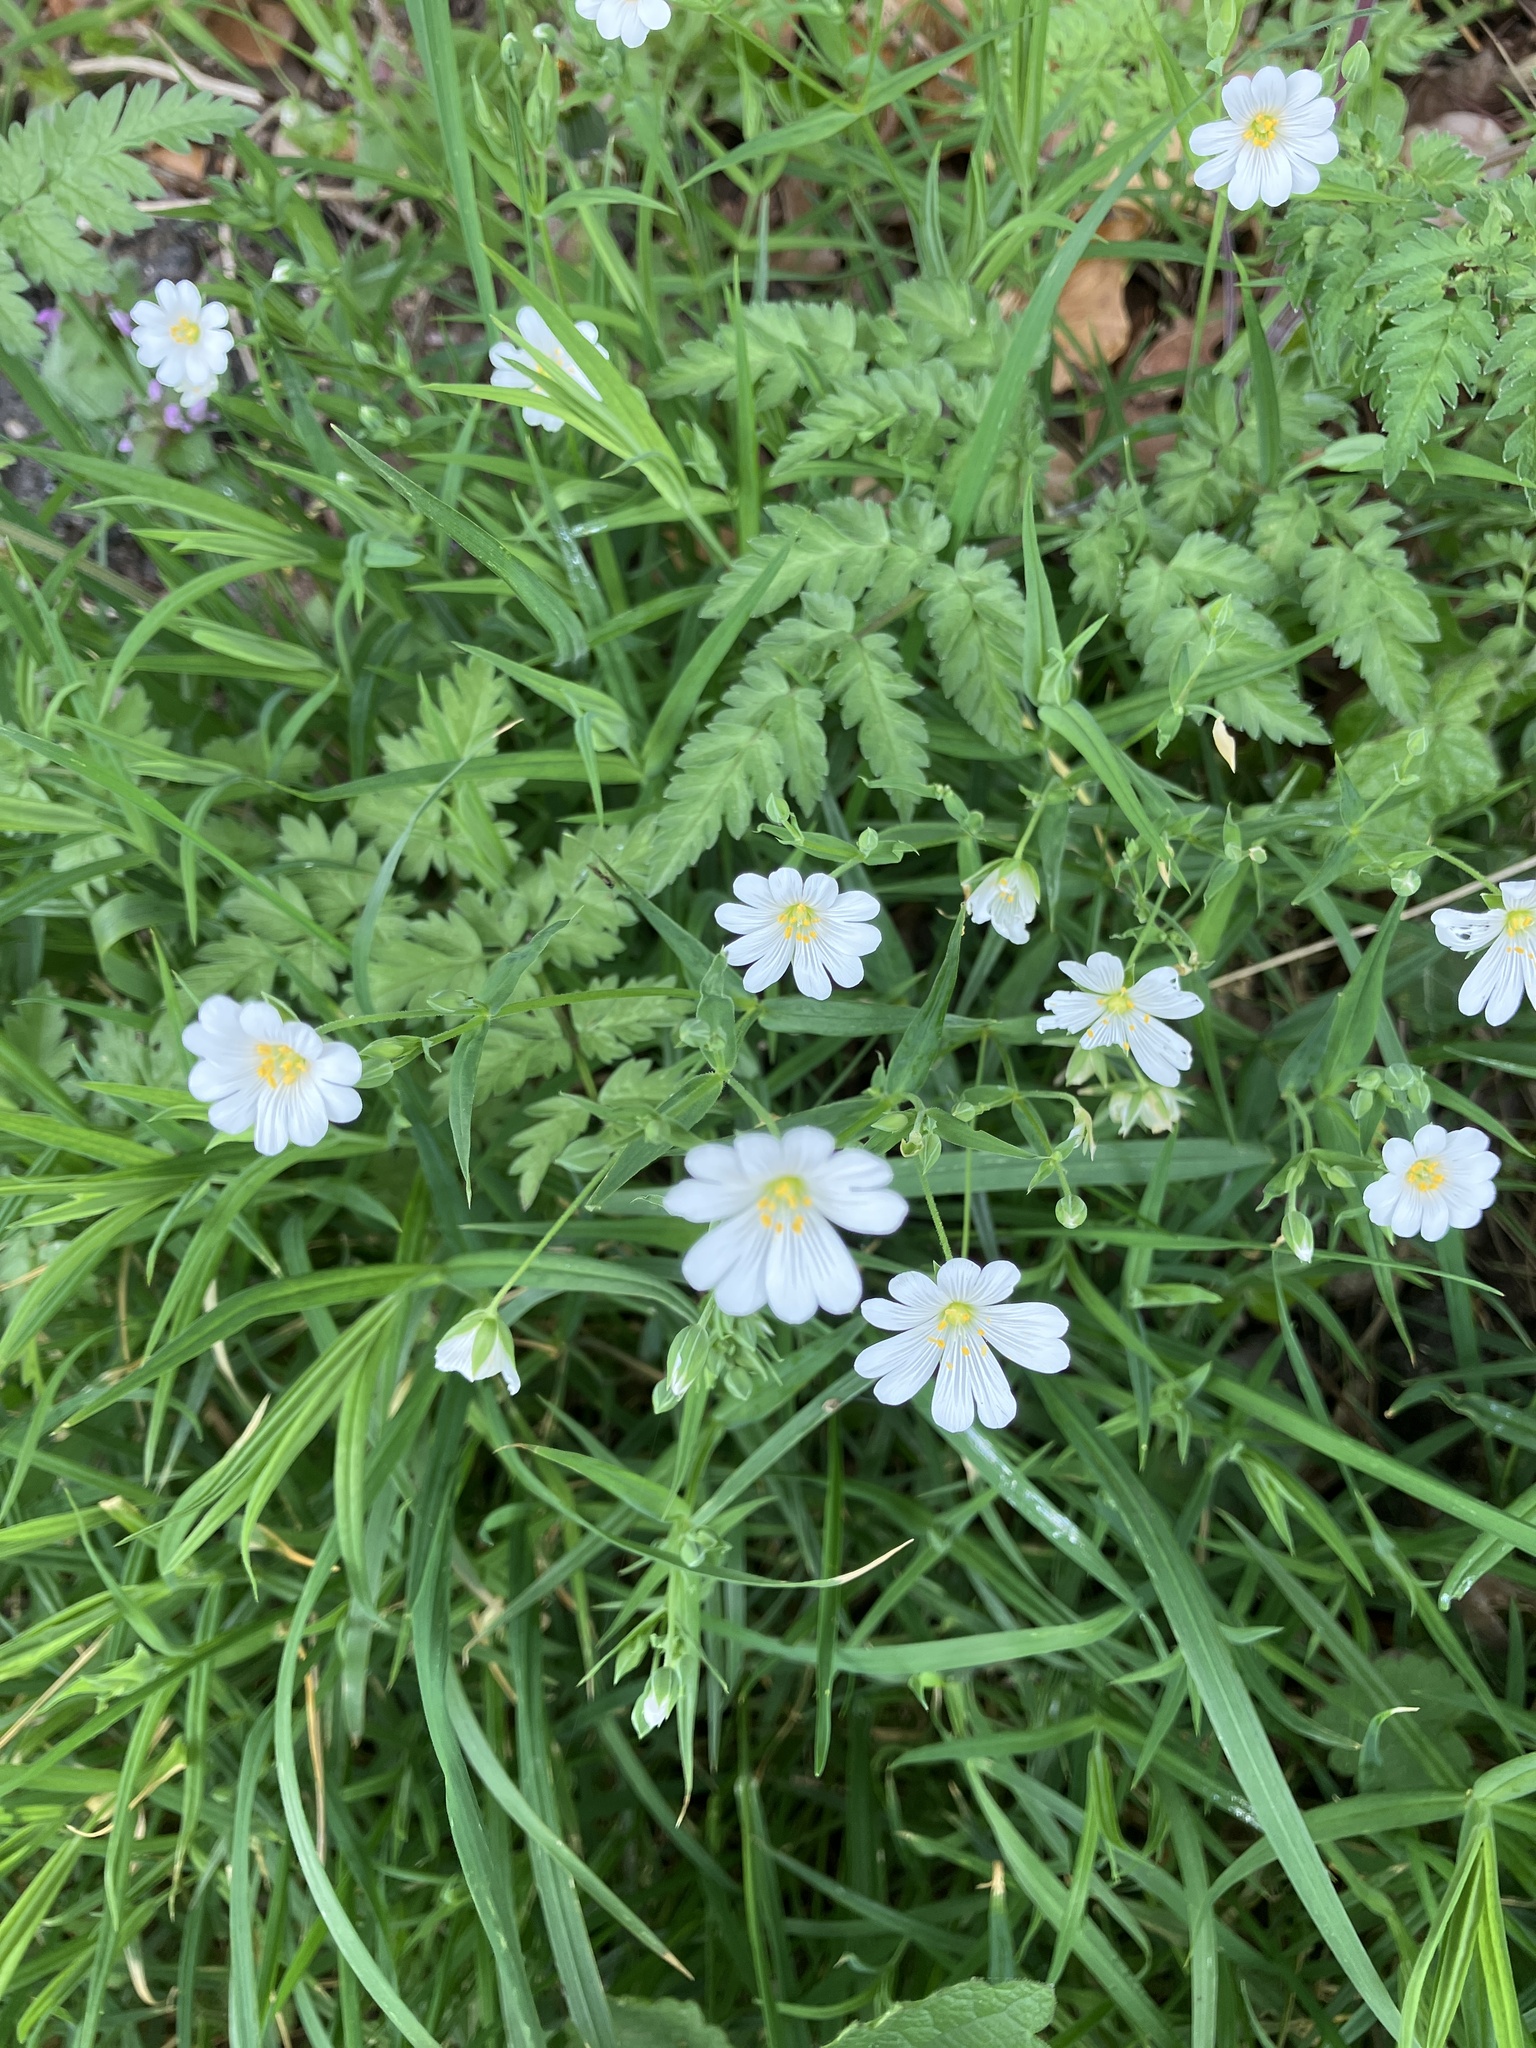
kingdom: Plantae
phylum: Tracheophyta
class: Magnoliopsida
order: Caryophyllales
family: Caryophyllaceae
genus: Rabelera
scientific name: Rabelera holostea
